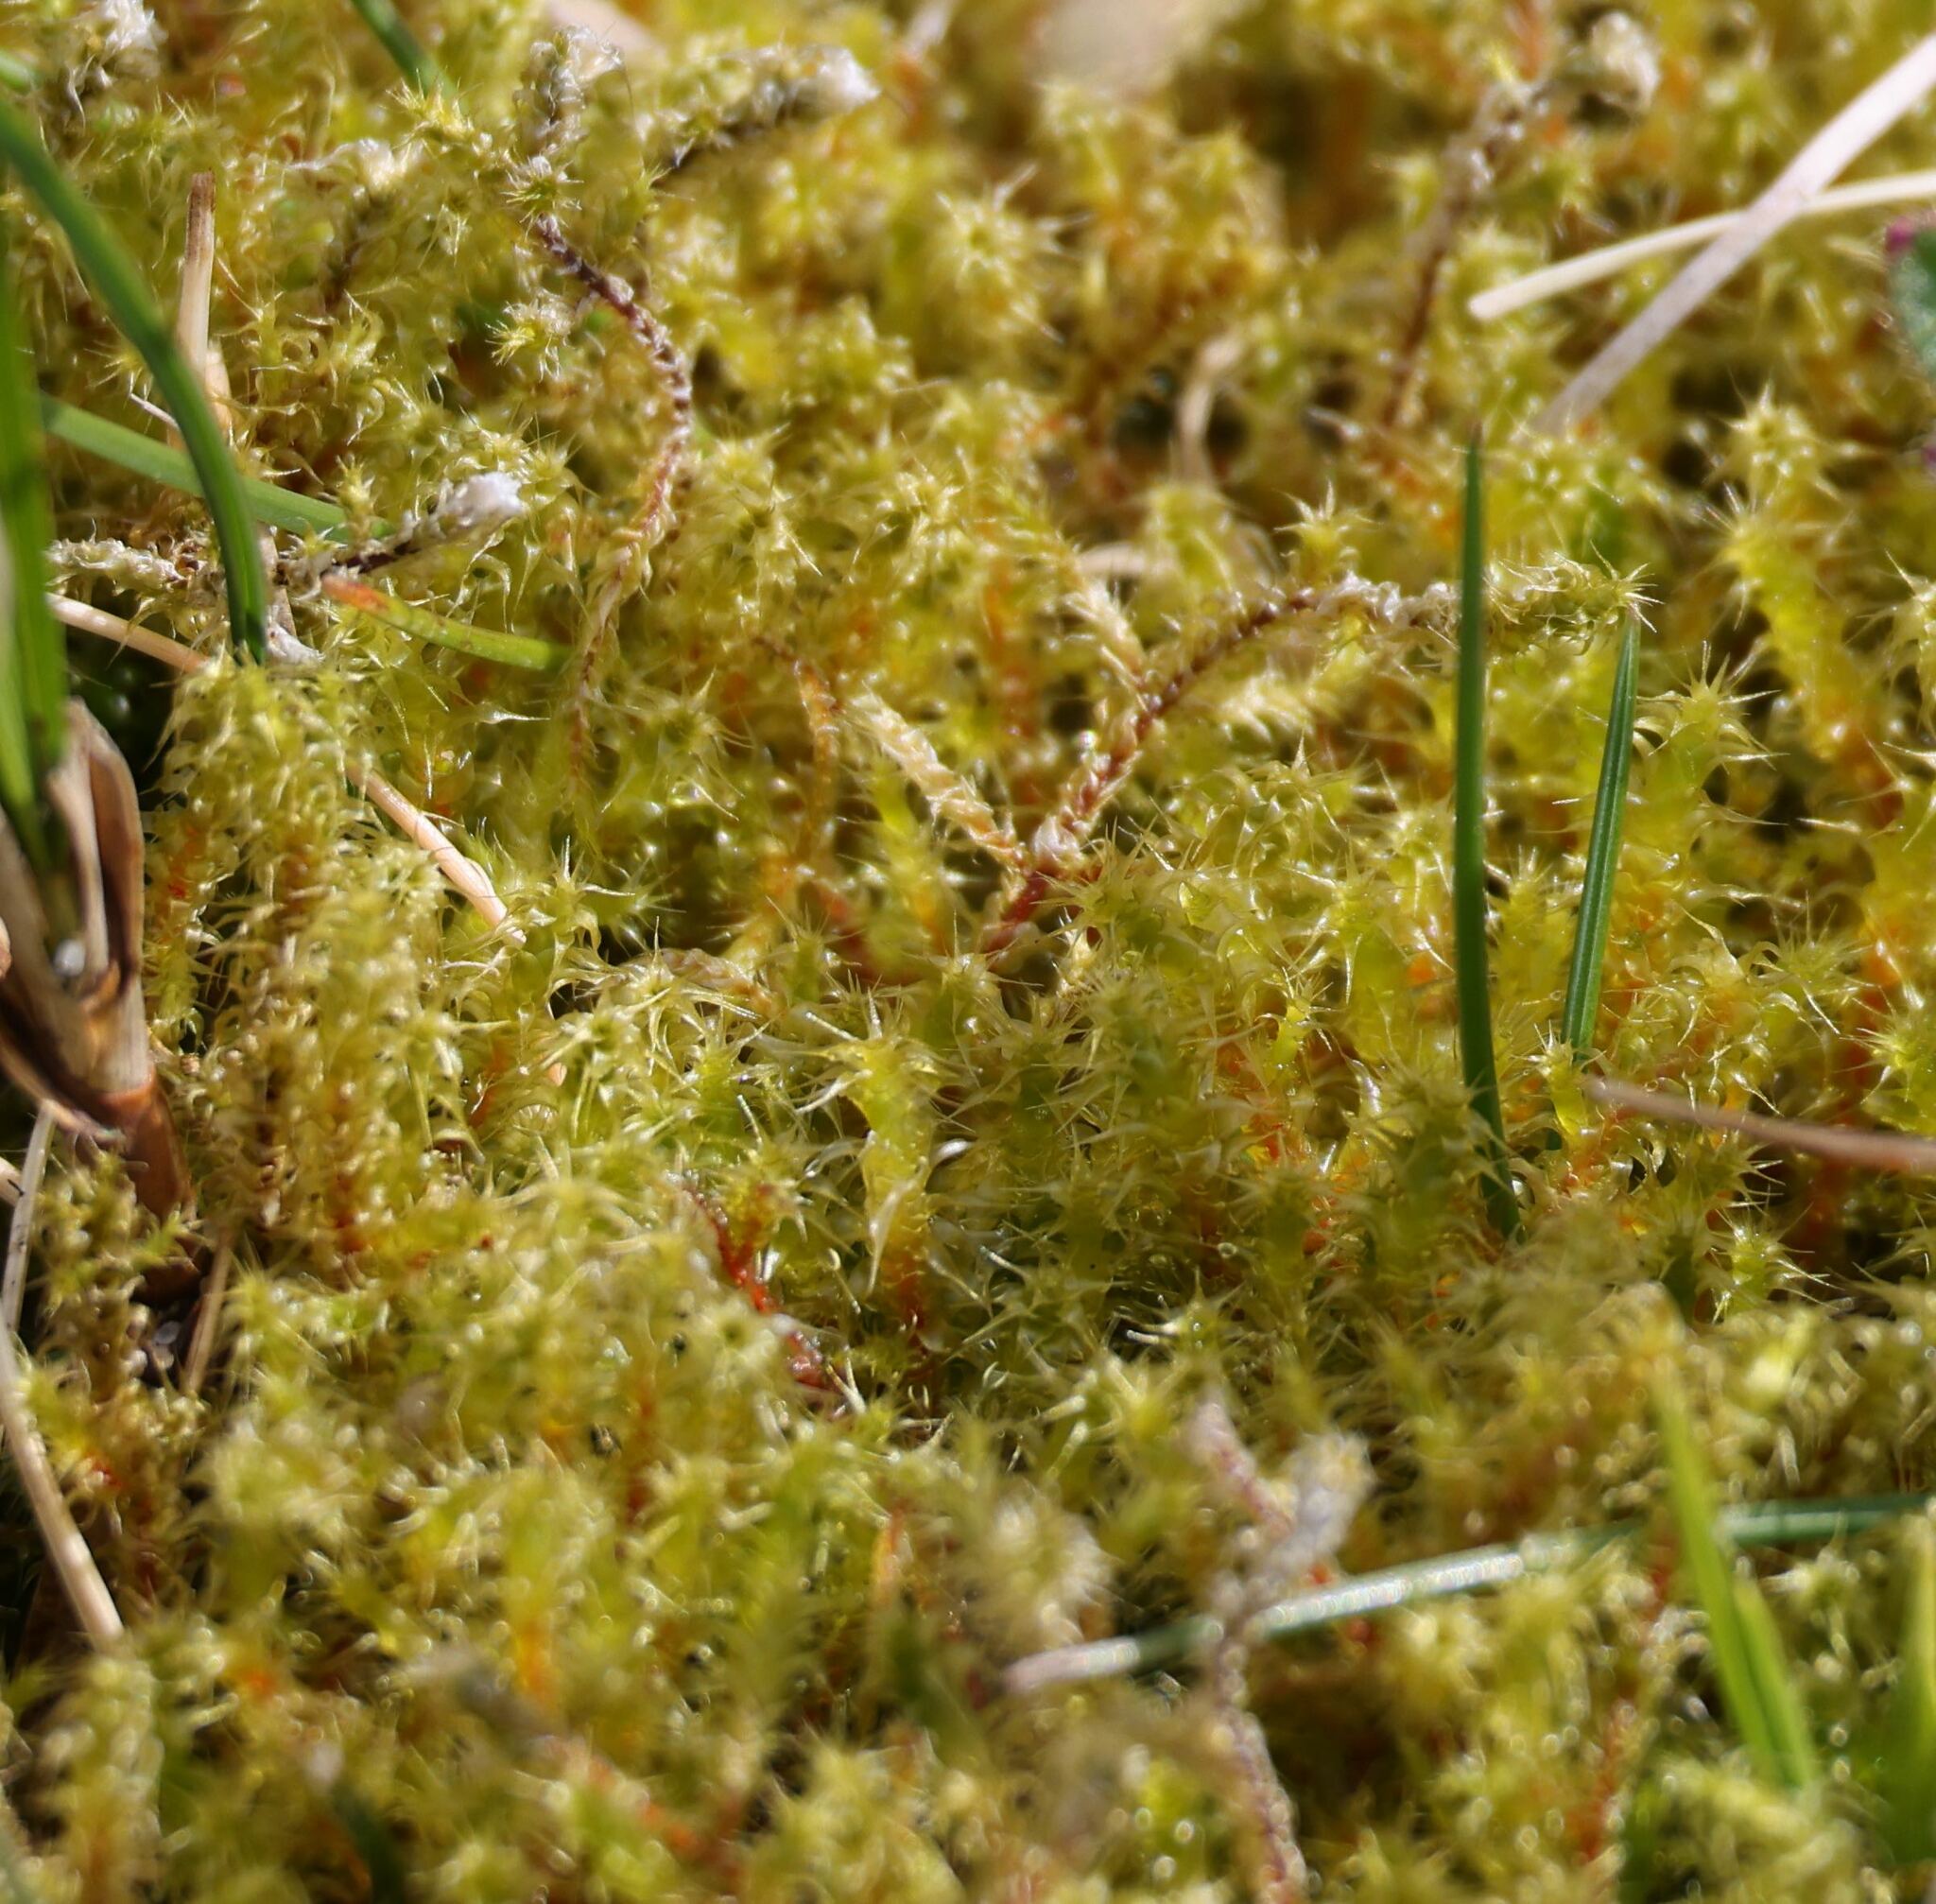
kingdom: Plantae
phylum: Bryophyta
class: Bryopsida
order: Hypnales
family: Hylocomiaceae
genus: Rhytidiadelphus
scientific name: Rhytidiadelphus squarrosus
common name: Springy turf-moss
